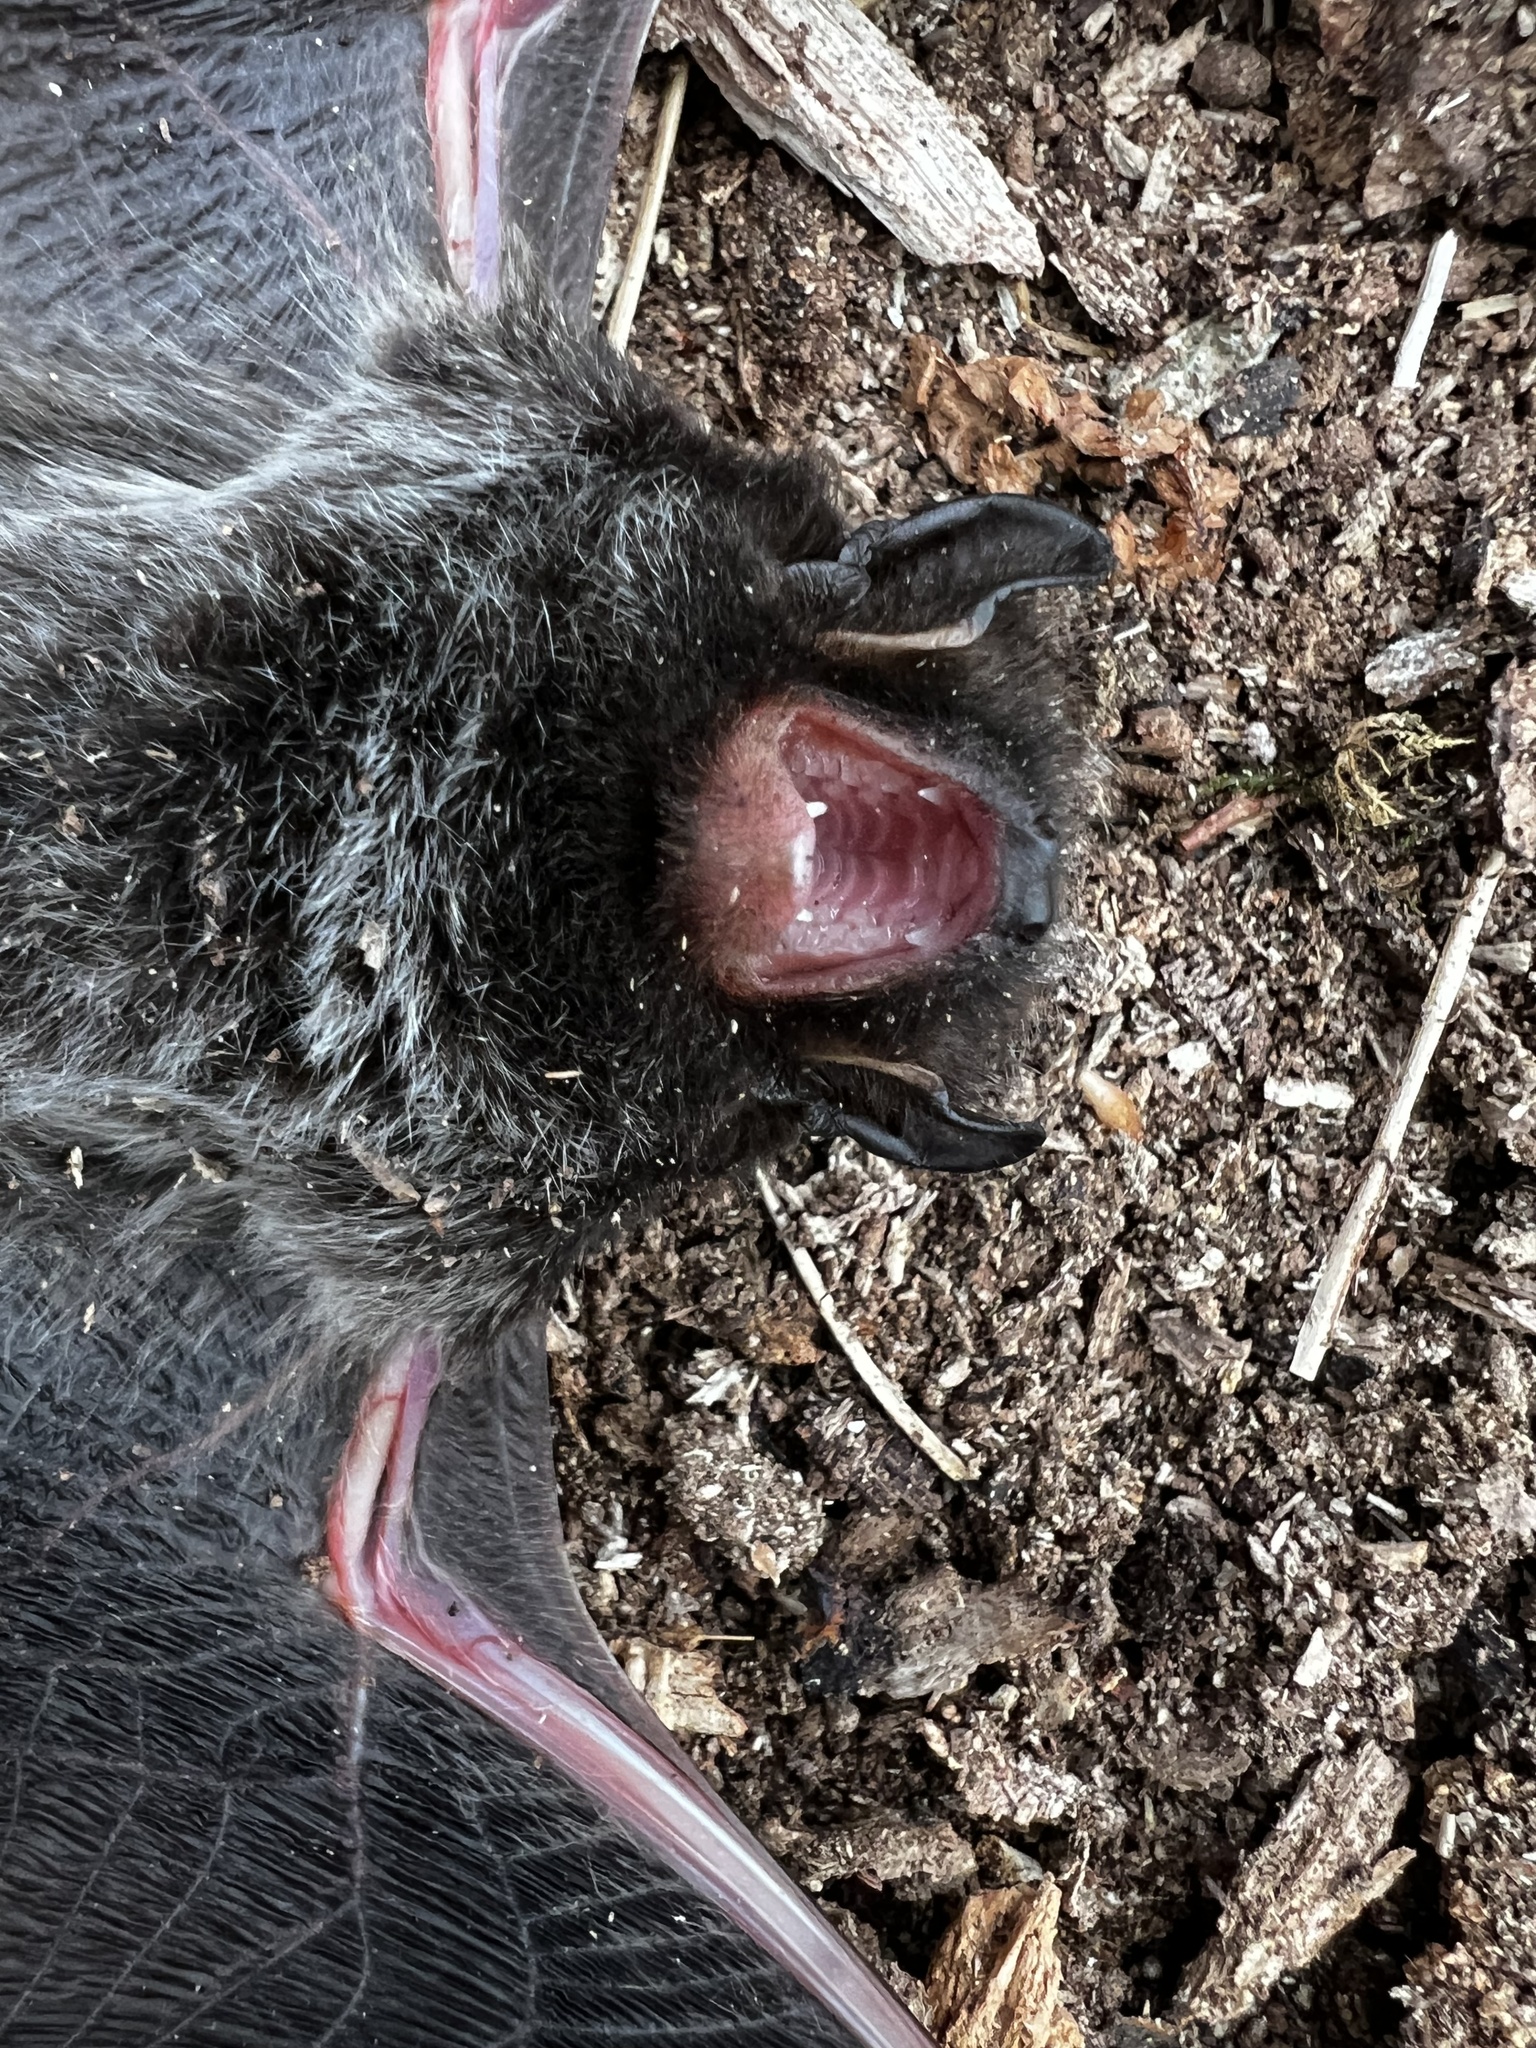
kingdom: Animalia
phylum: Chordata
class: Mammalia
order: Chiroptera
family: Vespertilionidae
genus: Lasionycteris
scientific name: Lasionycteris noctivagans
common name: Silver-haired bat
